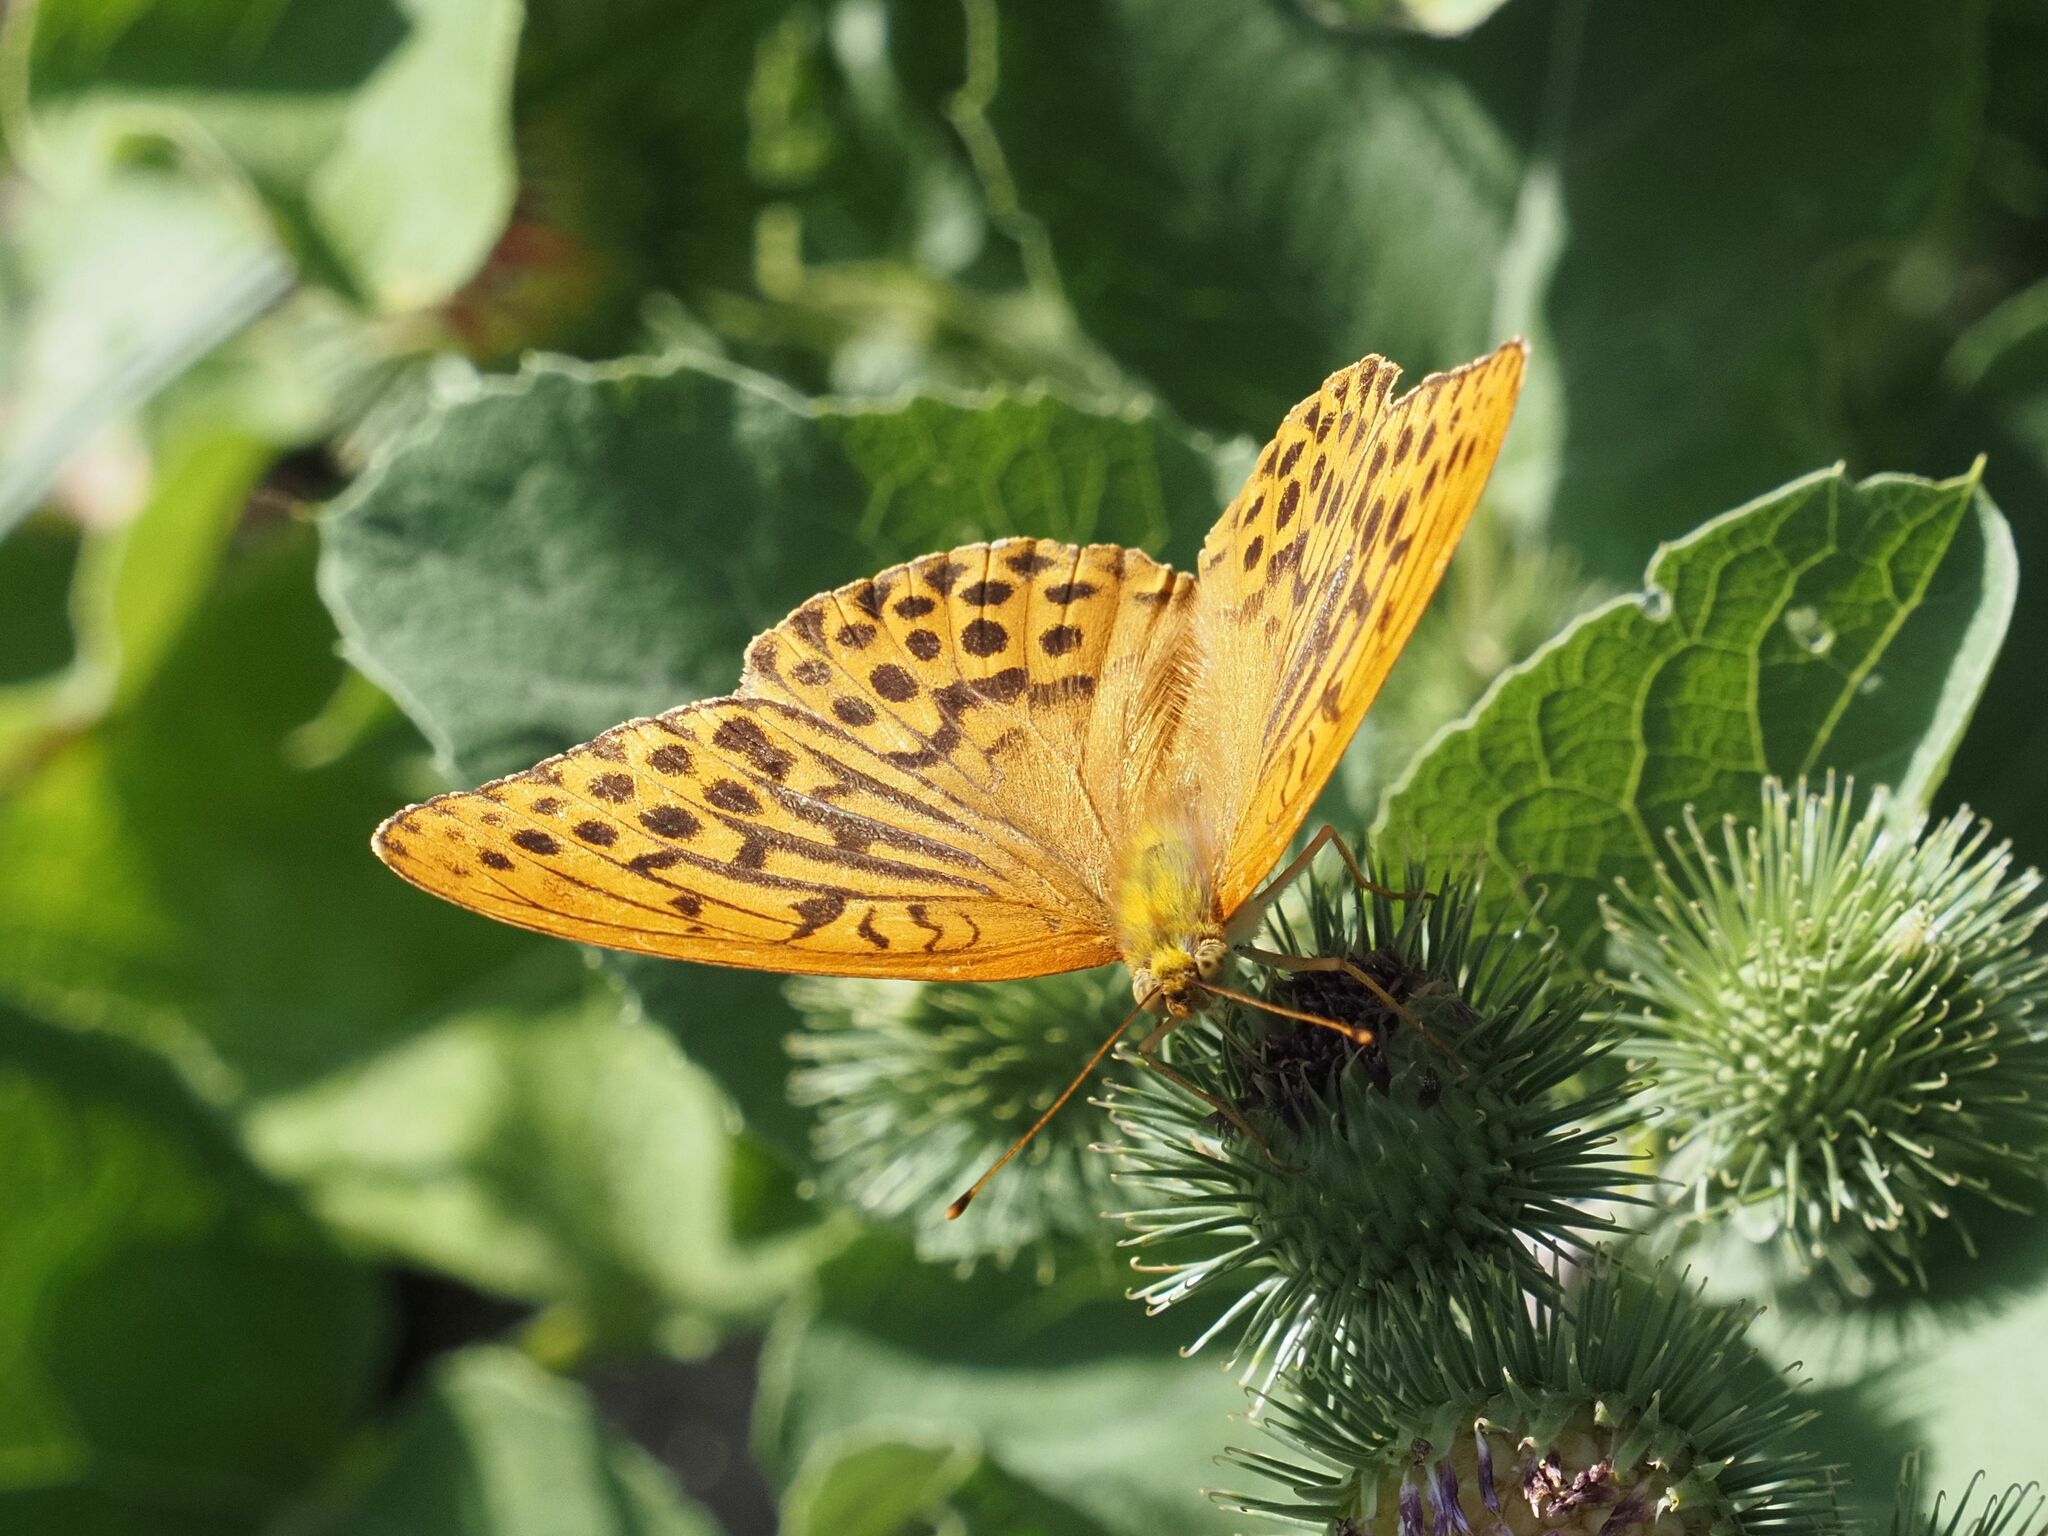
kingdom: Animalia
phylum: Arthropoda
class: Insecta
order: Lepidoptera
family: Nymphalidae
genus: Argynnis
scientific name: Argynnis paphia
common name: Silver-washed fritillary
